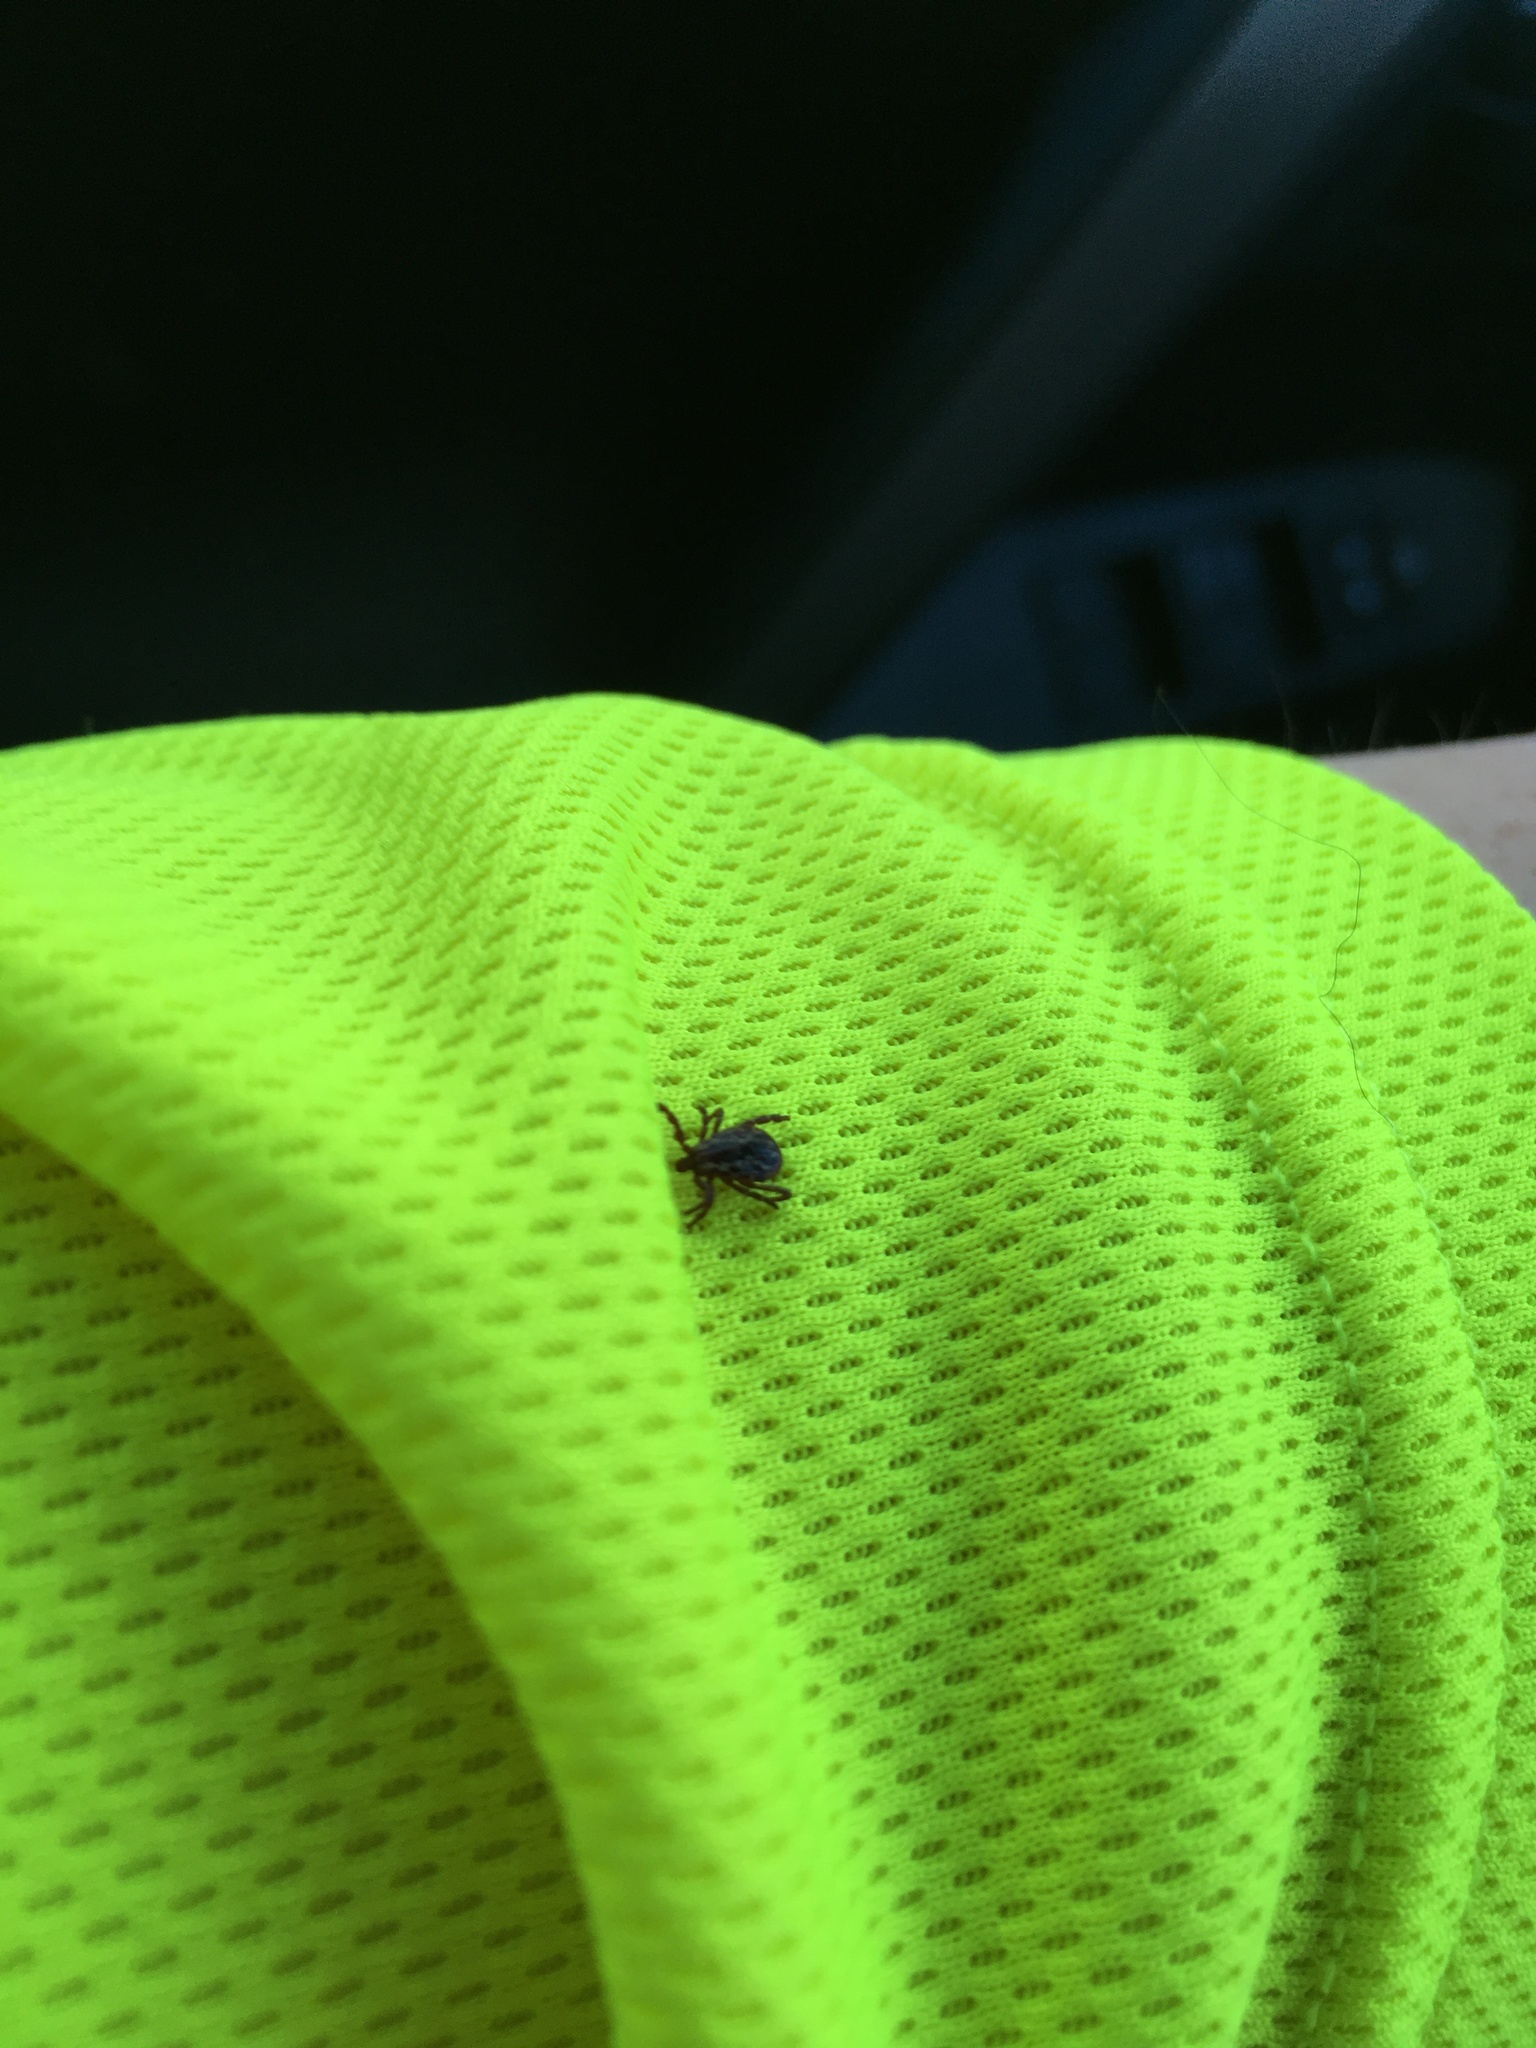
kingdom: Animalia
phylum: Arthropoda
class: Arachnida
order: Ixodida
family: Ixodidae
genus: Dermacentor
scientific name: Dermacentor variabilis
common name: American dog tick
